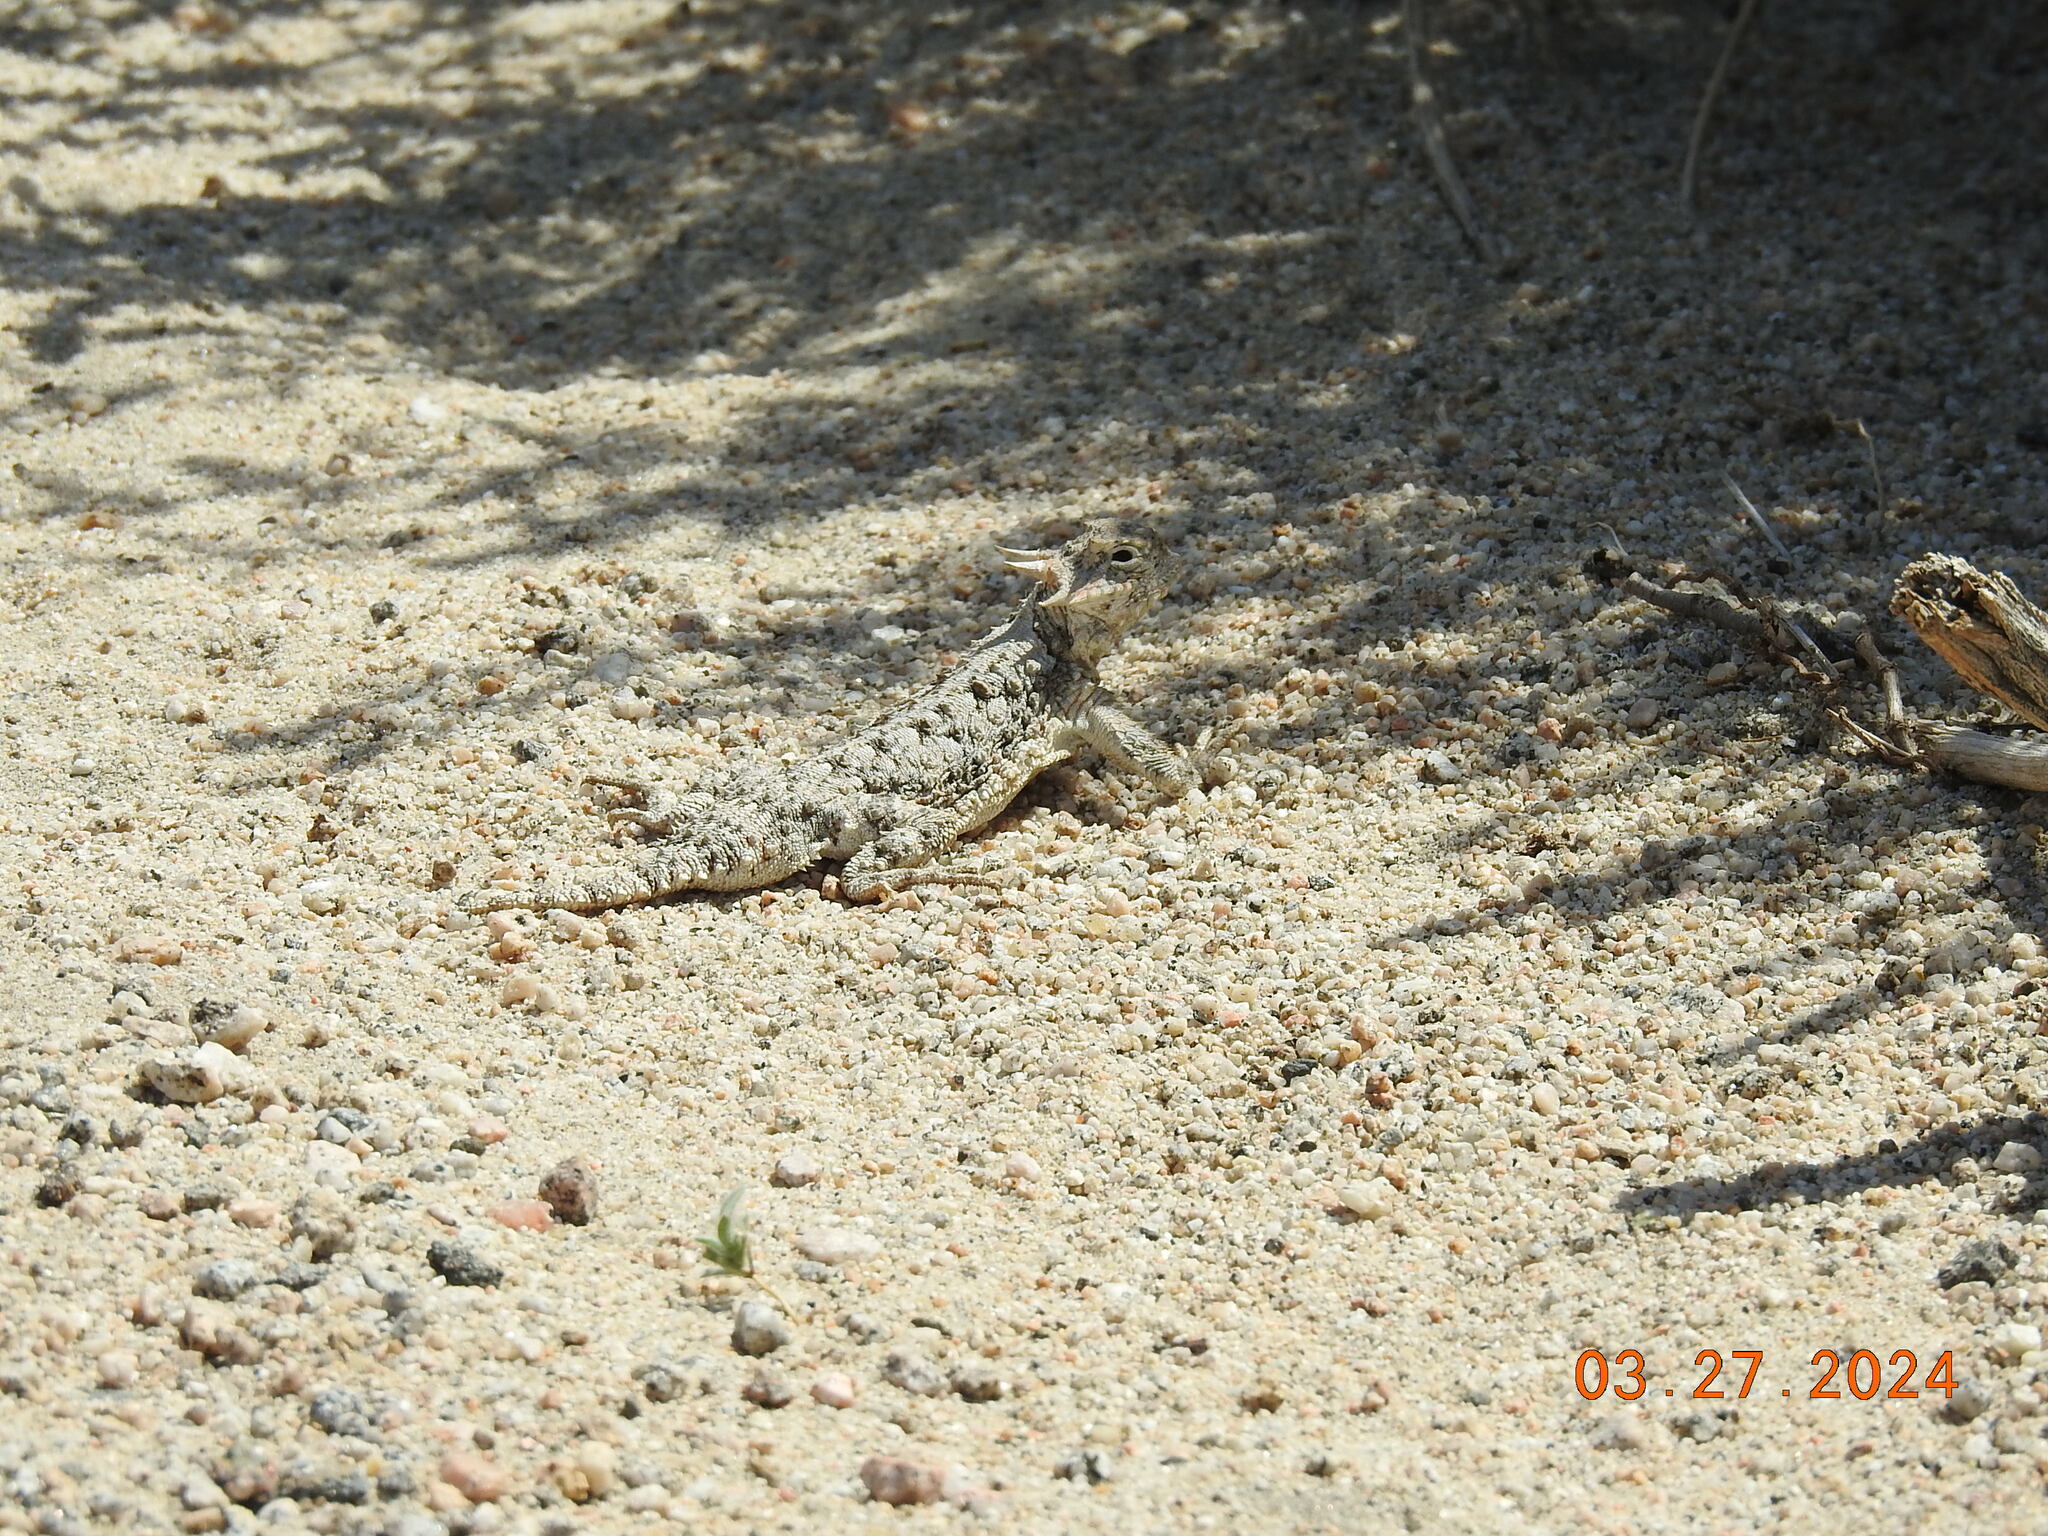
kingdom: Animalia
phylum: Chordata
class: Squamata
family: Phrynosomatidae
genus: Phrynosoma
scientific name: Phrynosoma platyrhinos
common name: Desert horned lizard
